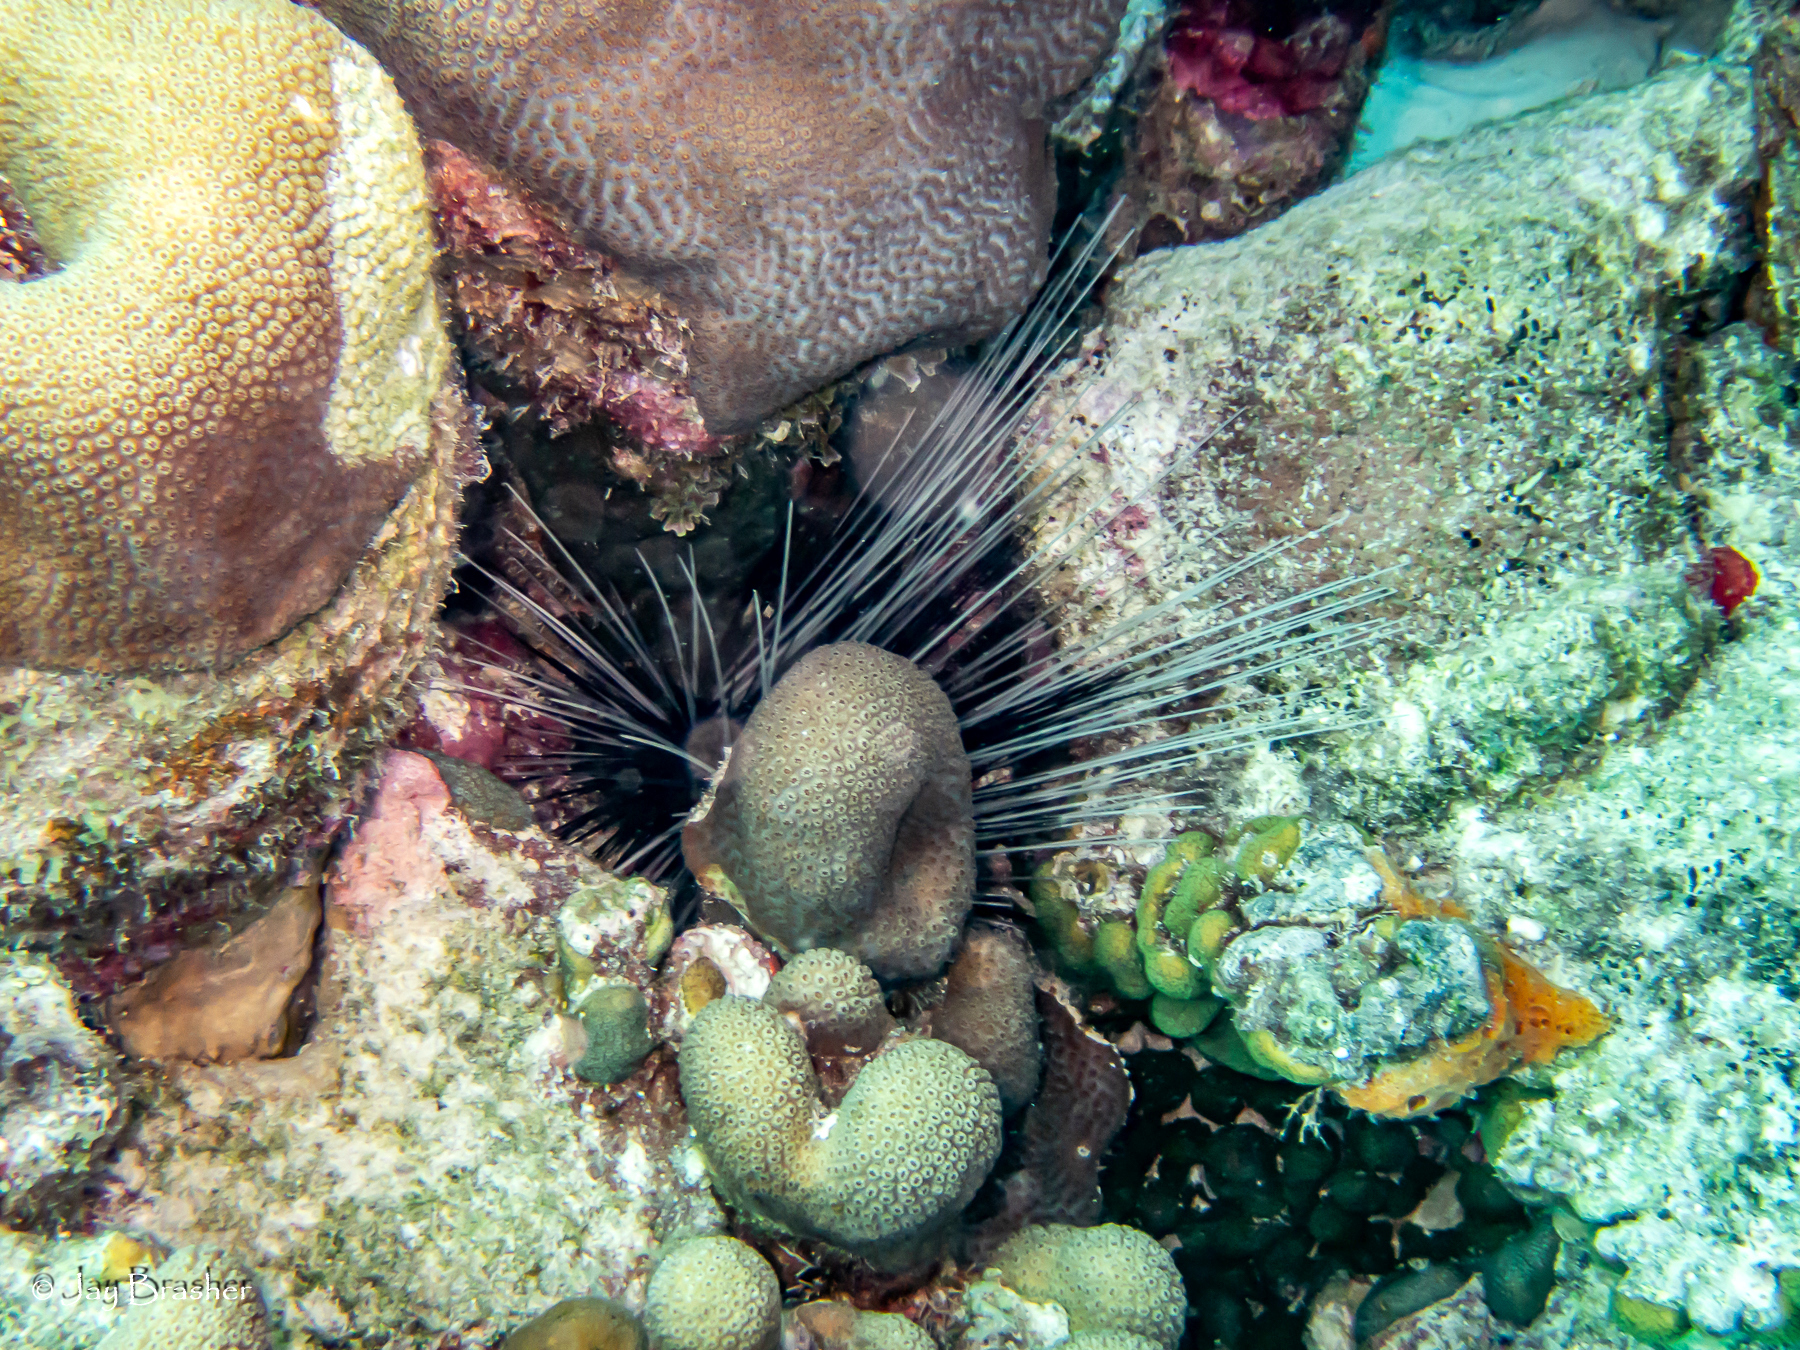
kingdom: Animalia
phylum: Echinodermata
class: Echinoidea
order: Diadematoida
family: Diadematidae
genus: Diadema
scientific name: Diadema antillarum
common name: Spiny urchin
